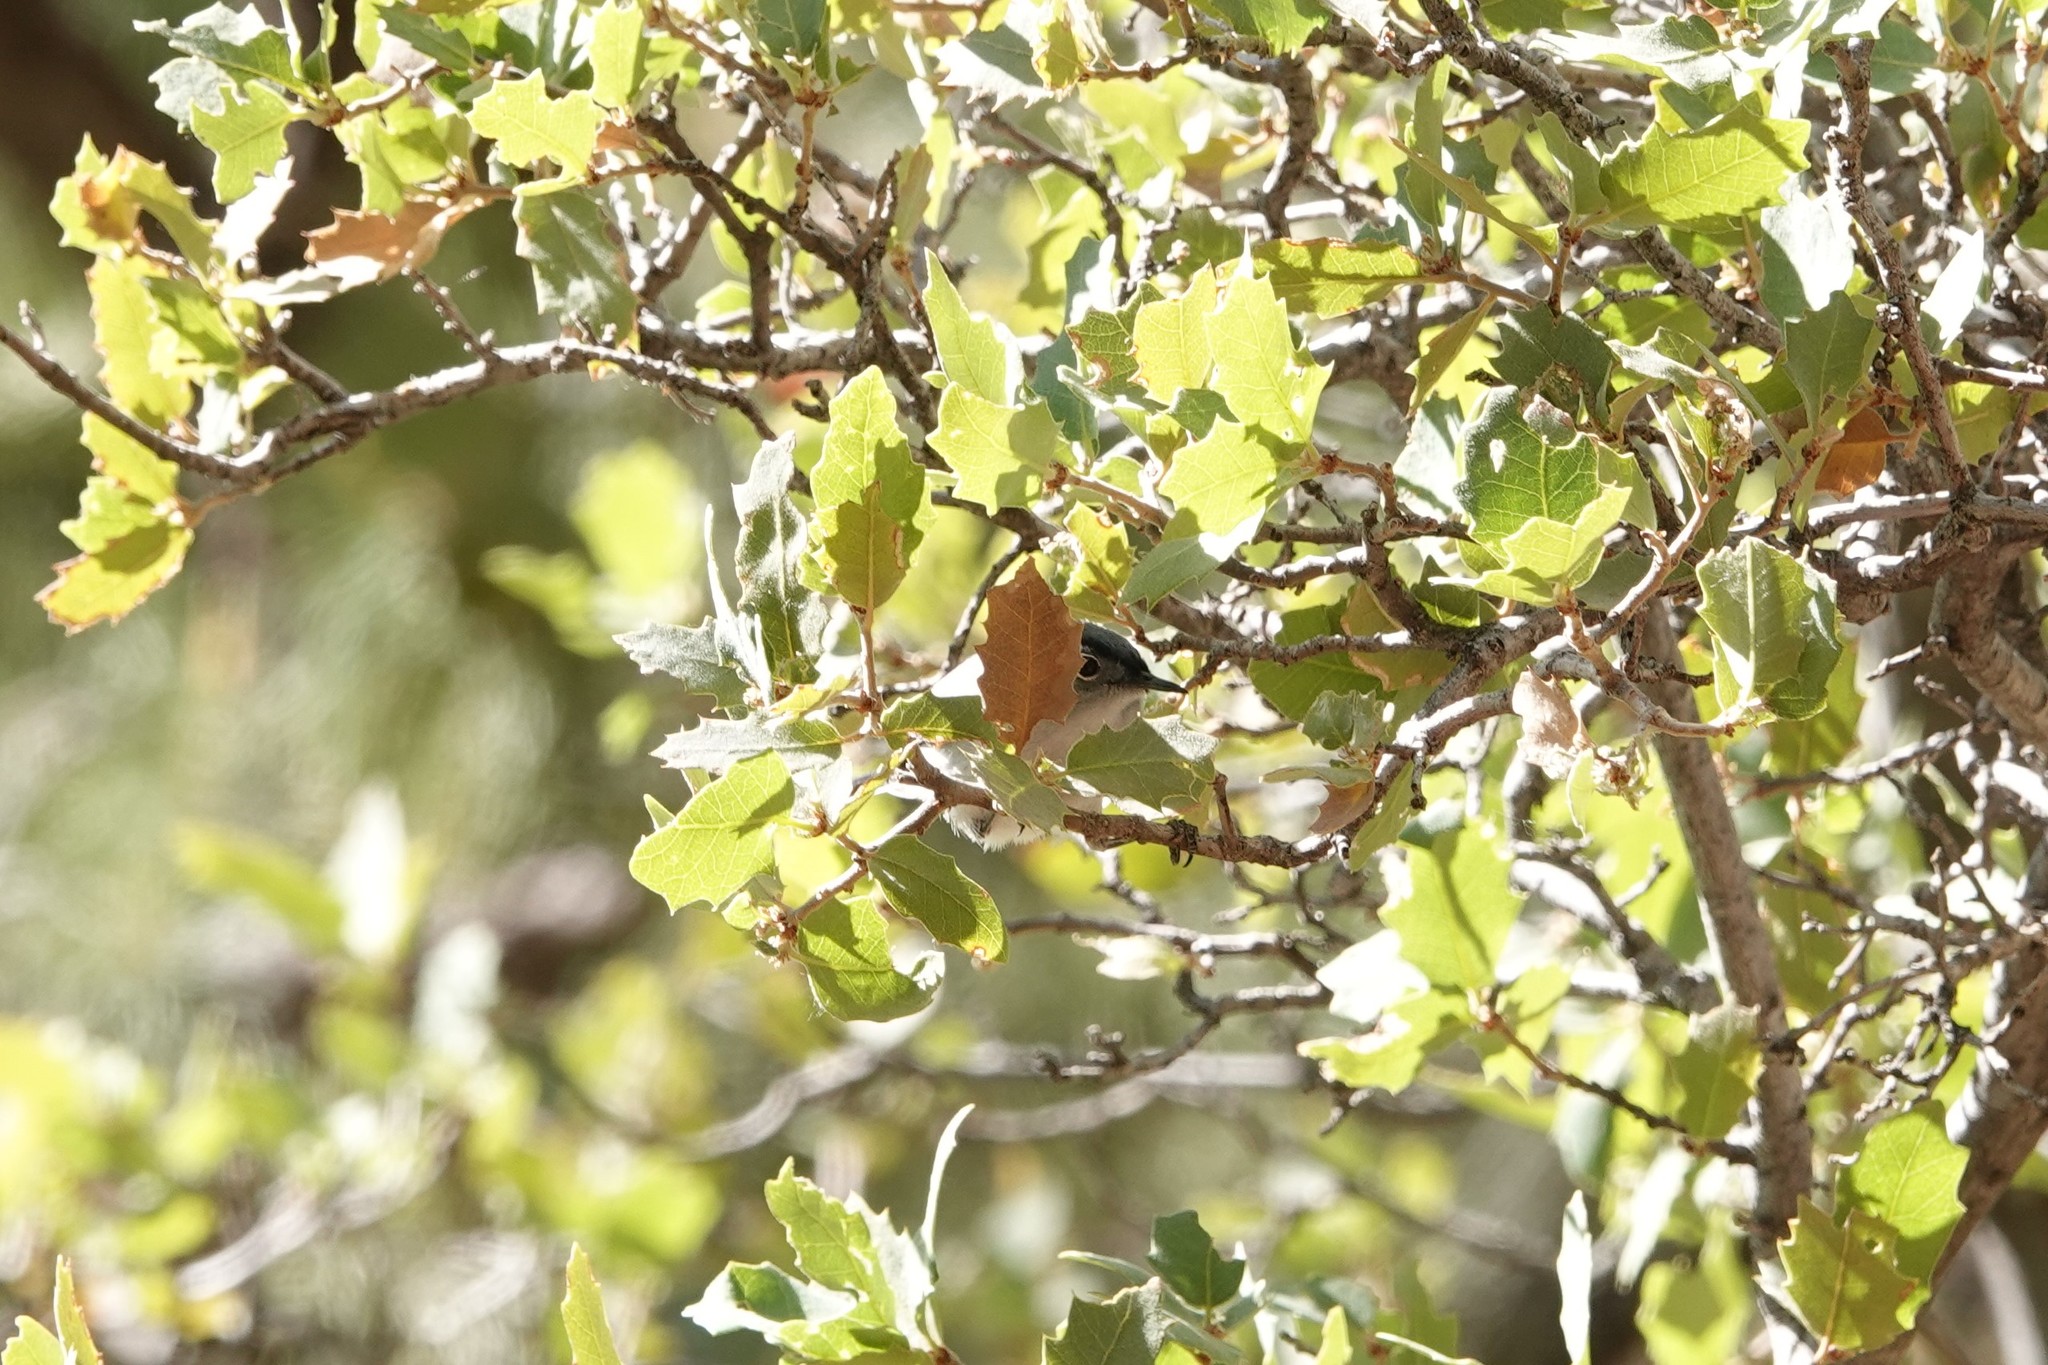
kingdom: Animalia
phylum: Chordata
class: Aves
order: Passeriformes
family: Polioptilidae
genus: Polioptila
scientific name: Polioptila caerulea
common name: Blue-gray gnatcatcher
